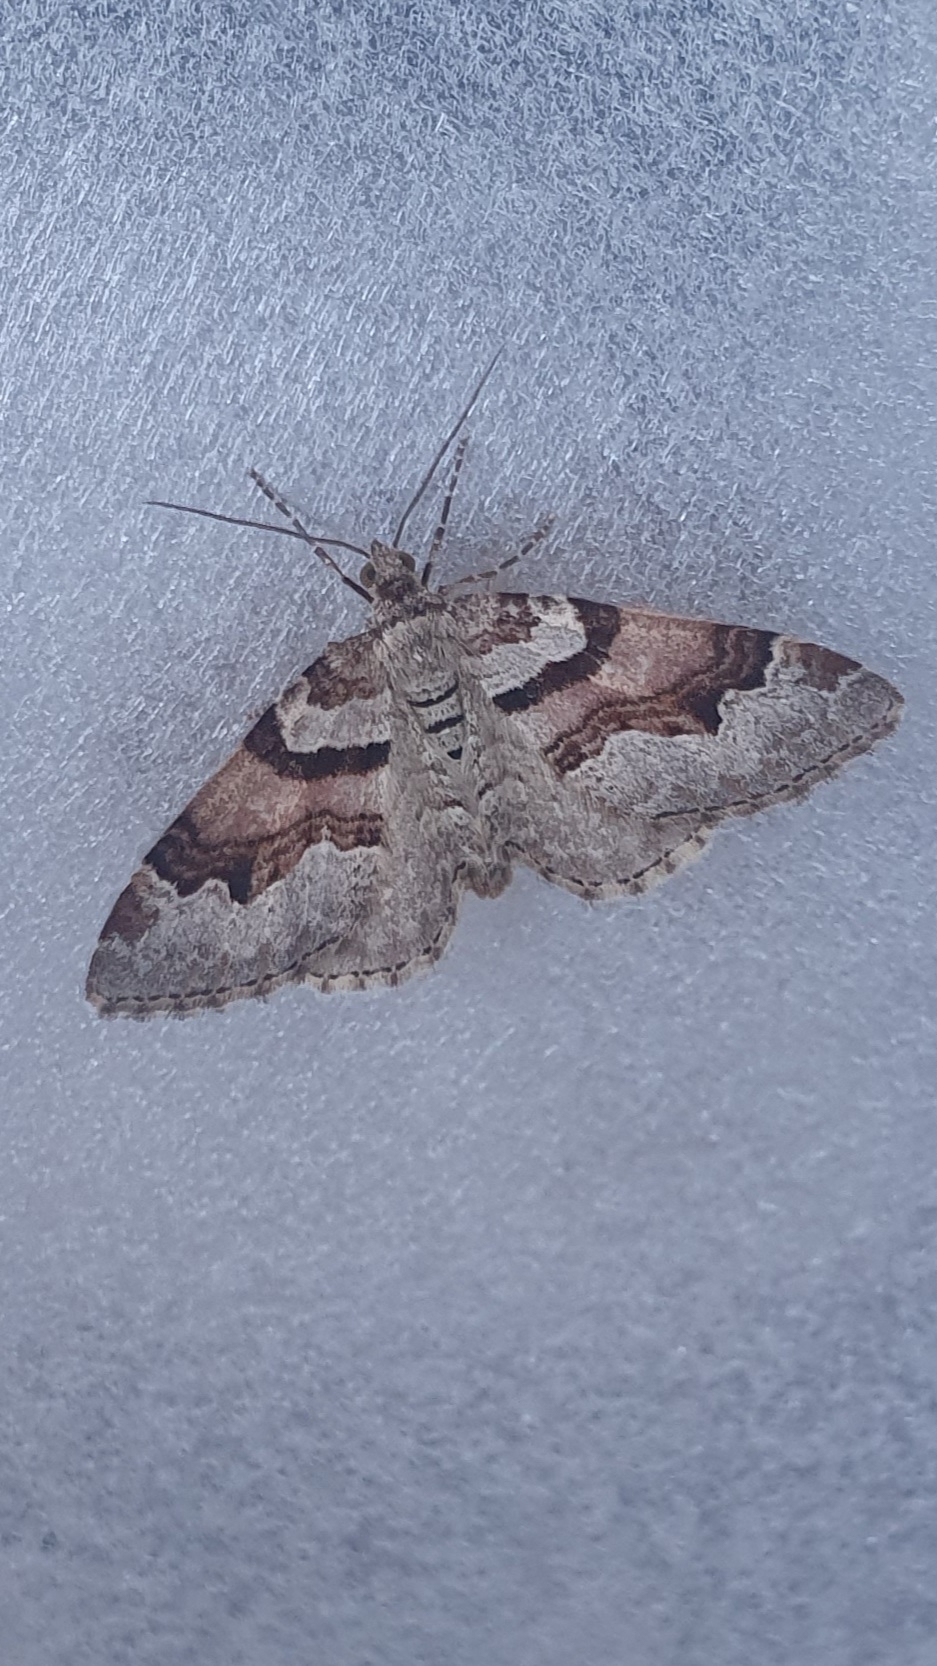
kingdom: Animalia
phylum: Arthropoda
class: Insecta
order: Lepidoptera
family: Geometridae
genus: Xanthorhoe
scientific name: Xanthorhoe designata
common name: Flame carpet
